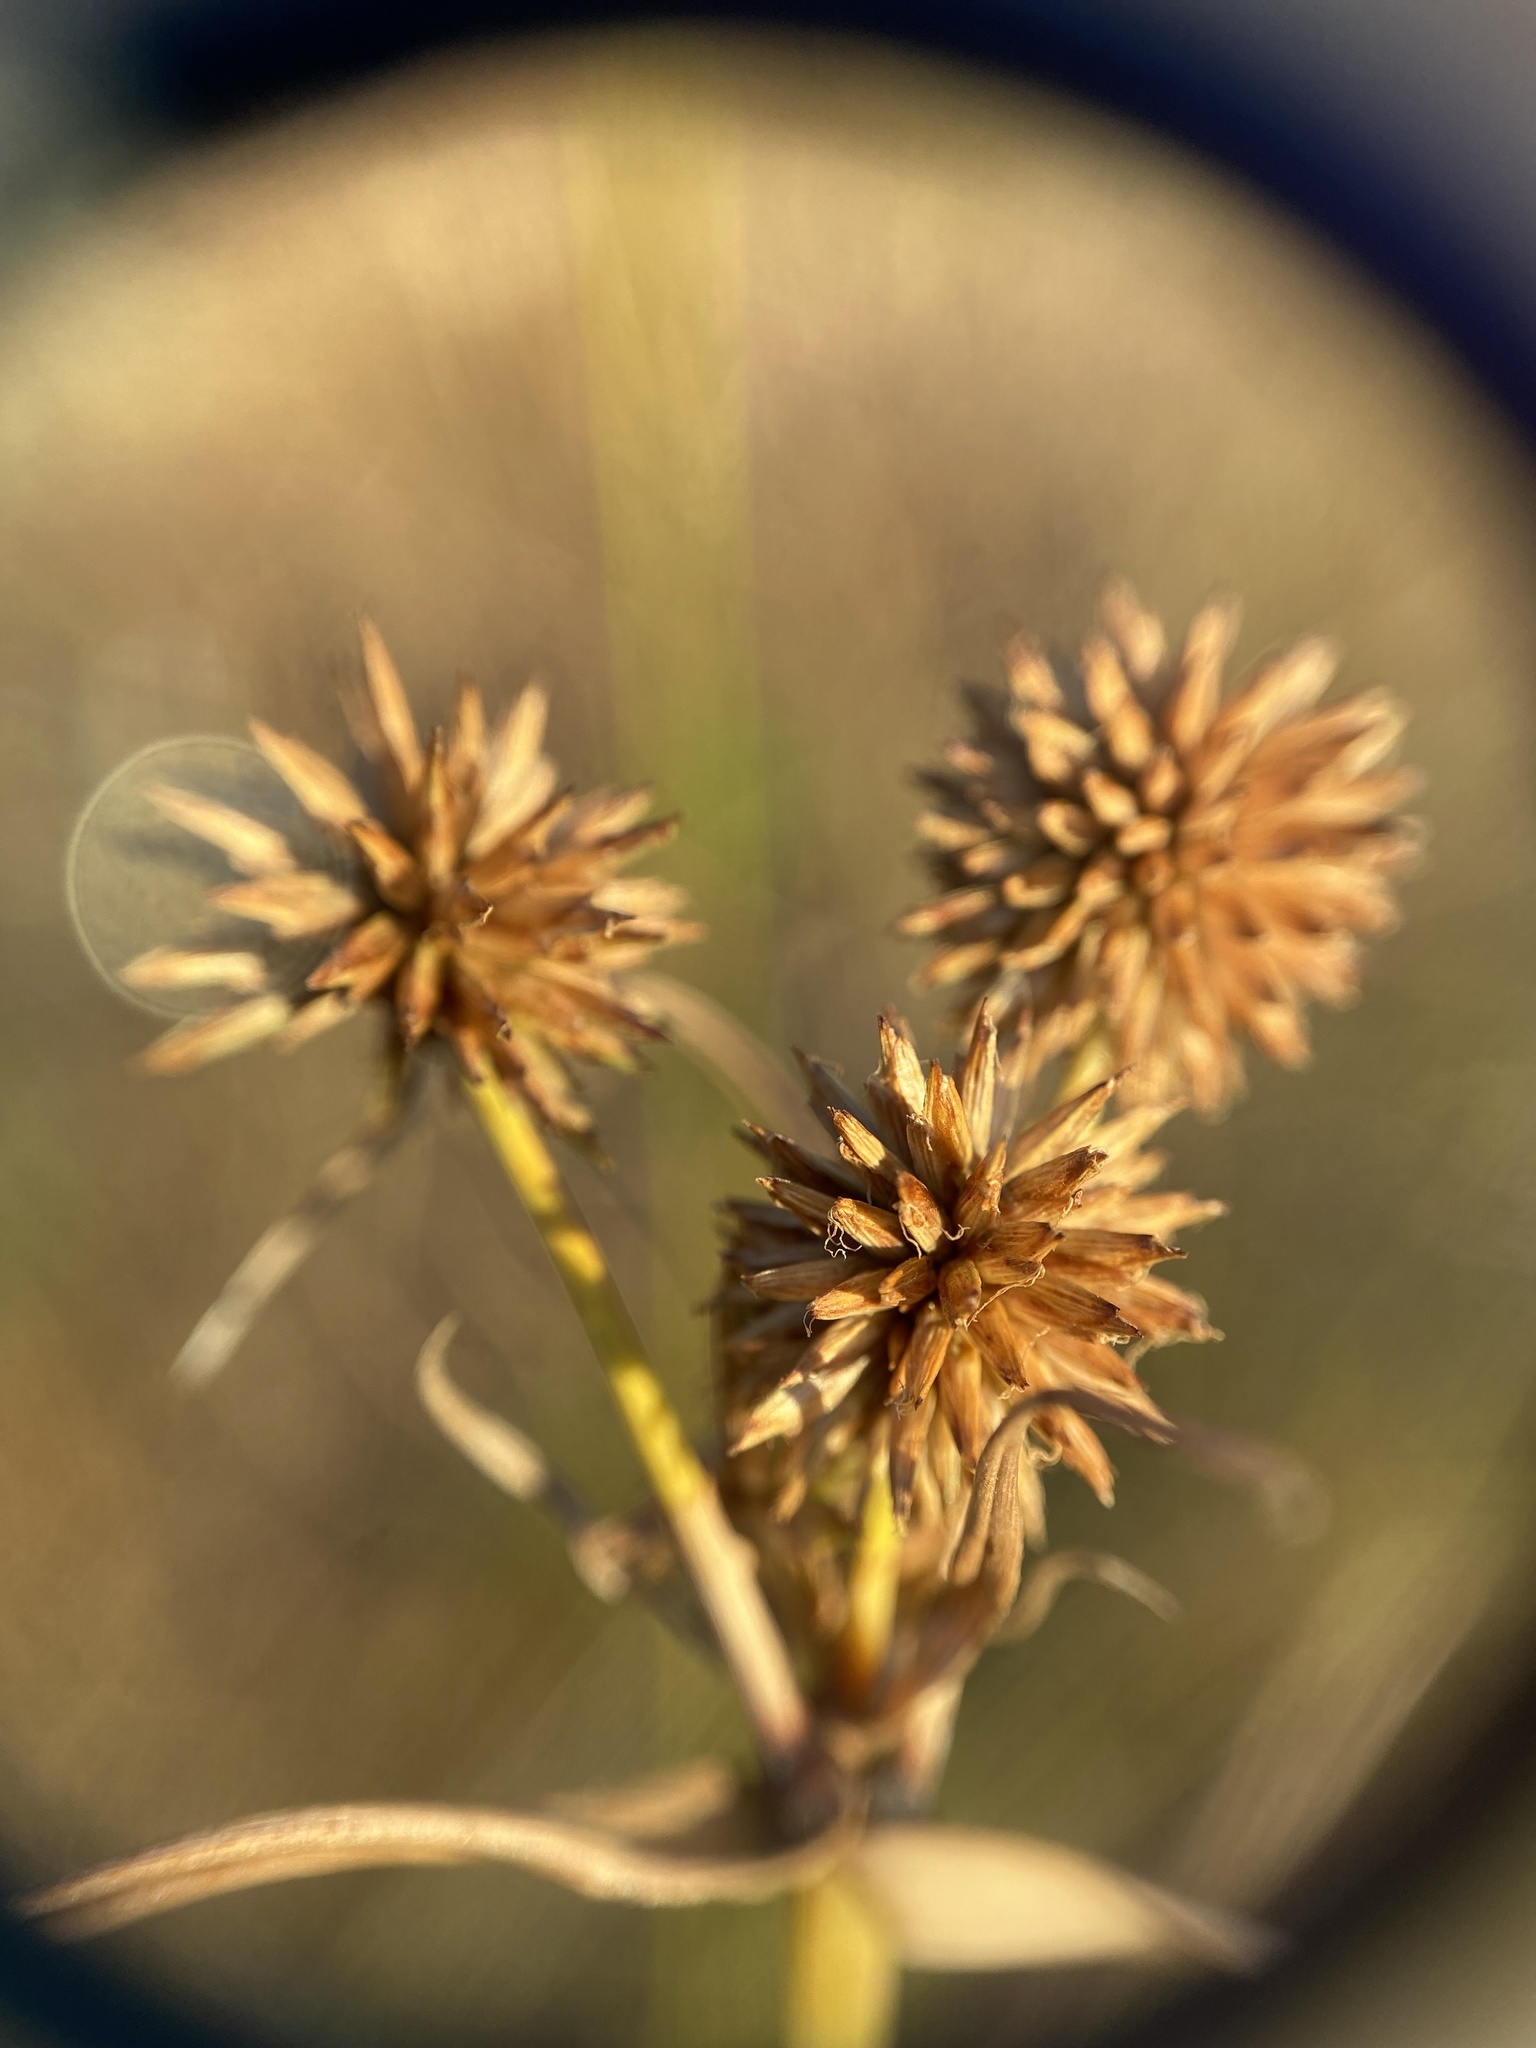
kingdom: Plantae
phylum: Tracheophyta
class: Liliopsida
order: Poales
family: Cyperaceae
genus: Cyperus
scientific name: Cyperus echinatus
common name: Teasel sedge
